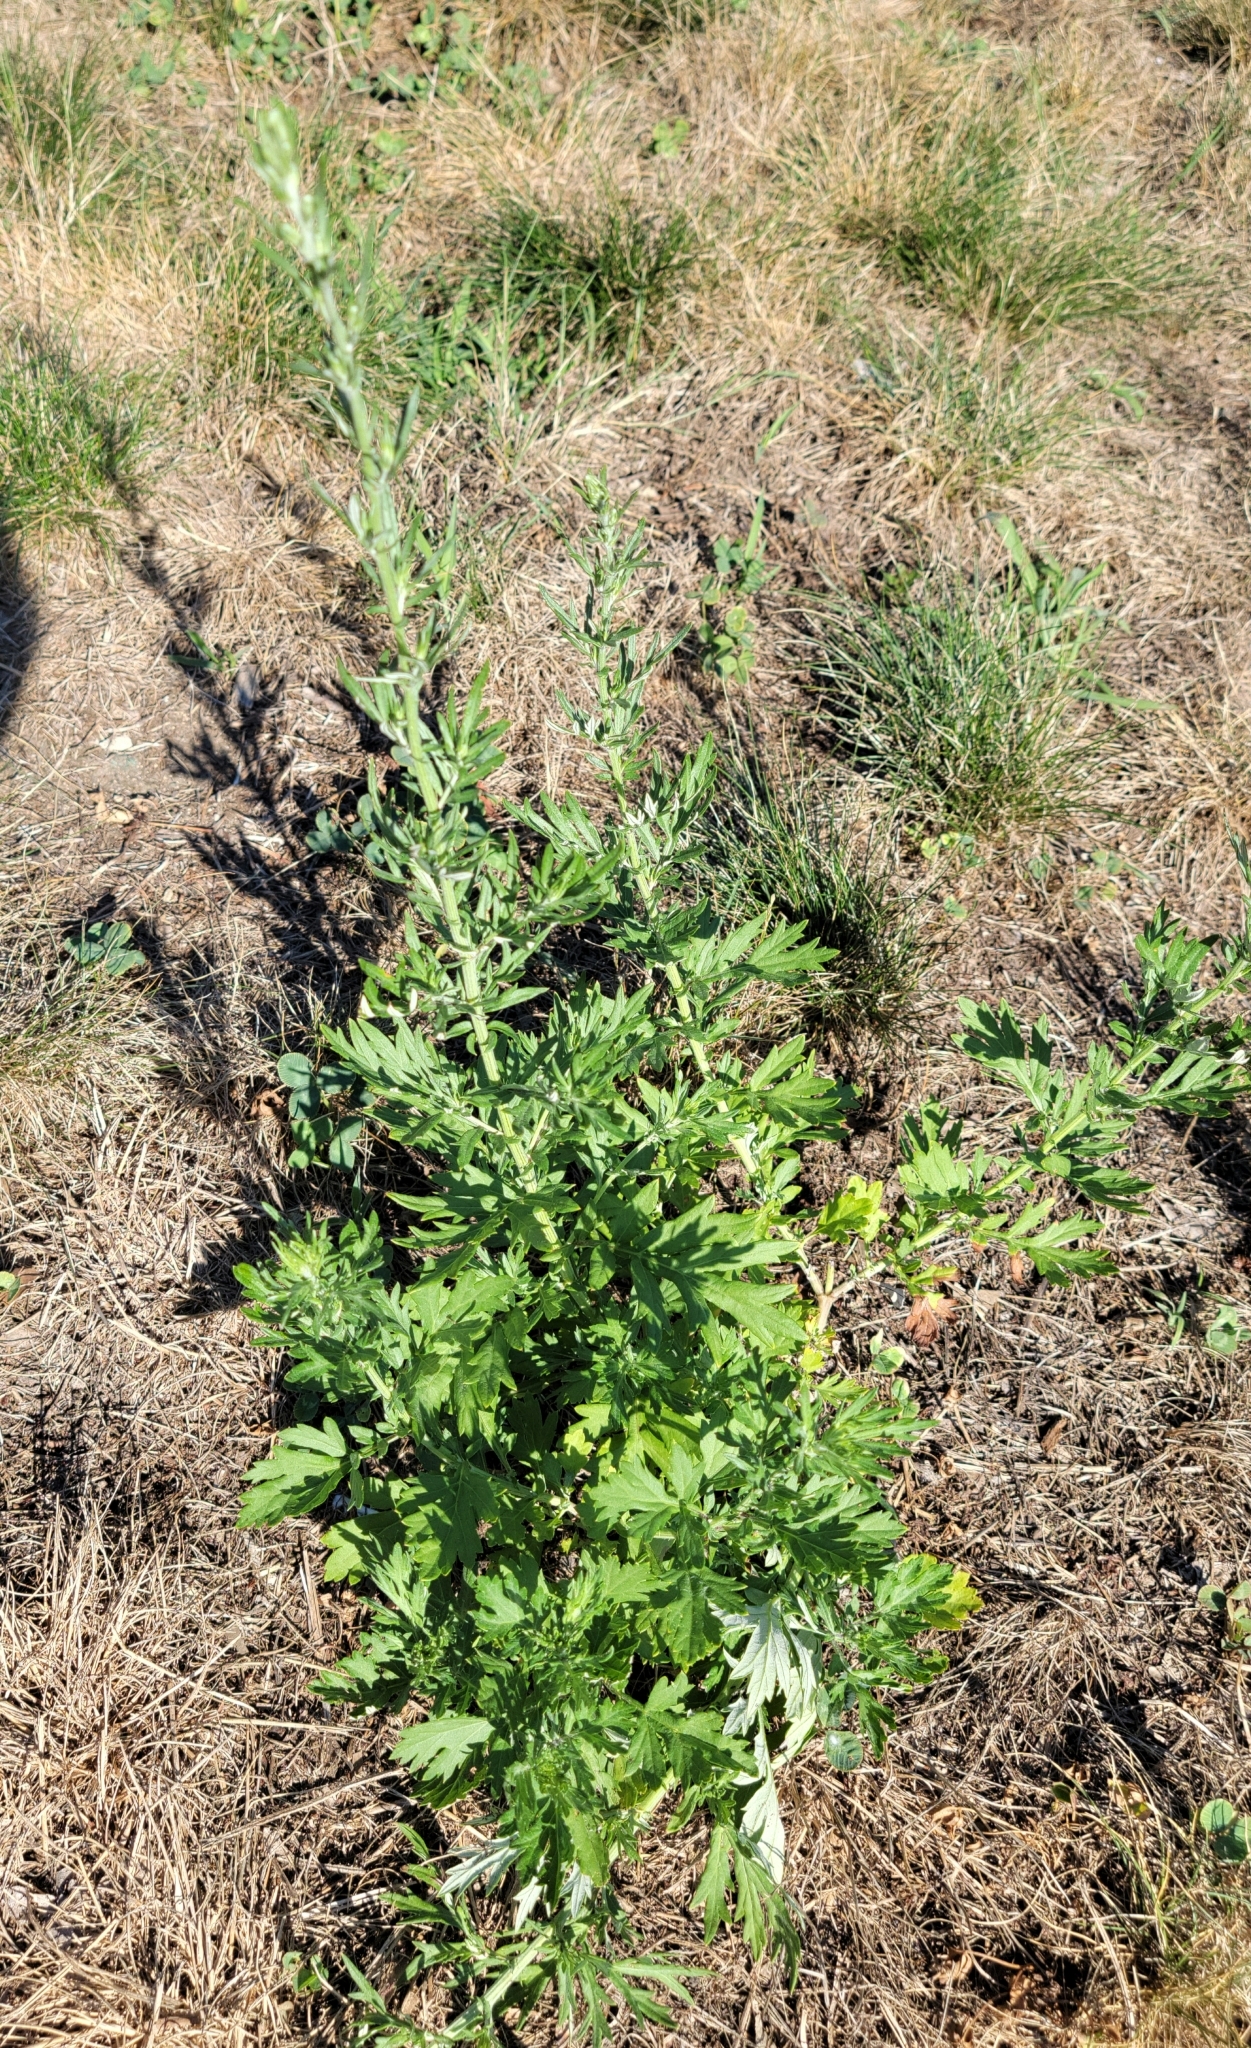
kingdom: Plantae
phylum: Tracheophyta
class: Magnoliopsida
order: Asterales
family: Asteraceae
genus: Artemisia
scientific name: Artemisia vulgaris
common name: Mugwort
